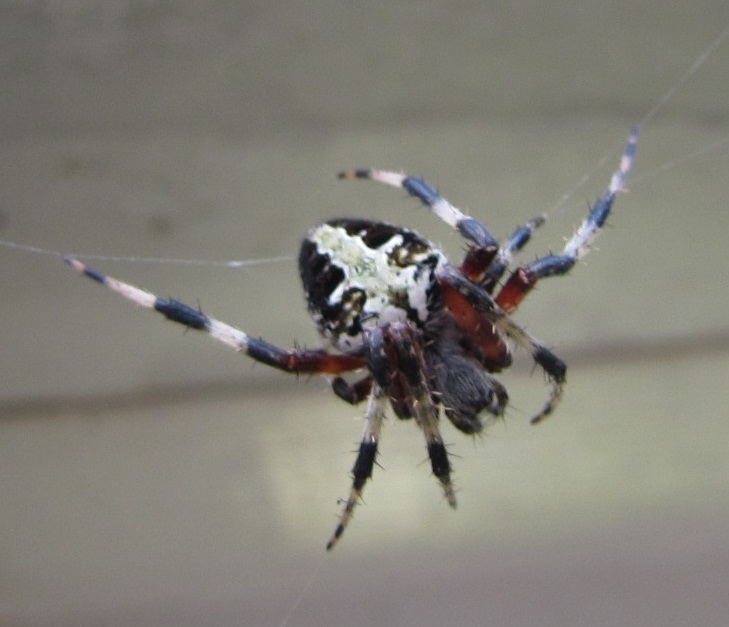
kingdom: Animalia
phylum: Arthropoda
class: Arachnida
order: Araneae
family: Araneidae
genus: Neoscona
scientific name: Neoscona domiciliorum
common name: Red-femured spotted orbweaver
